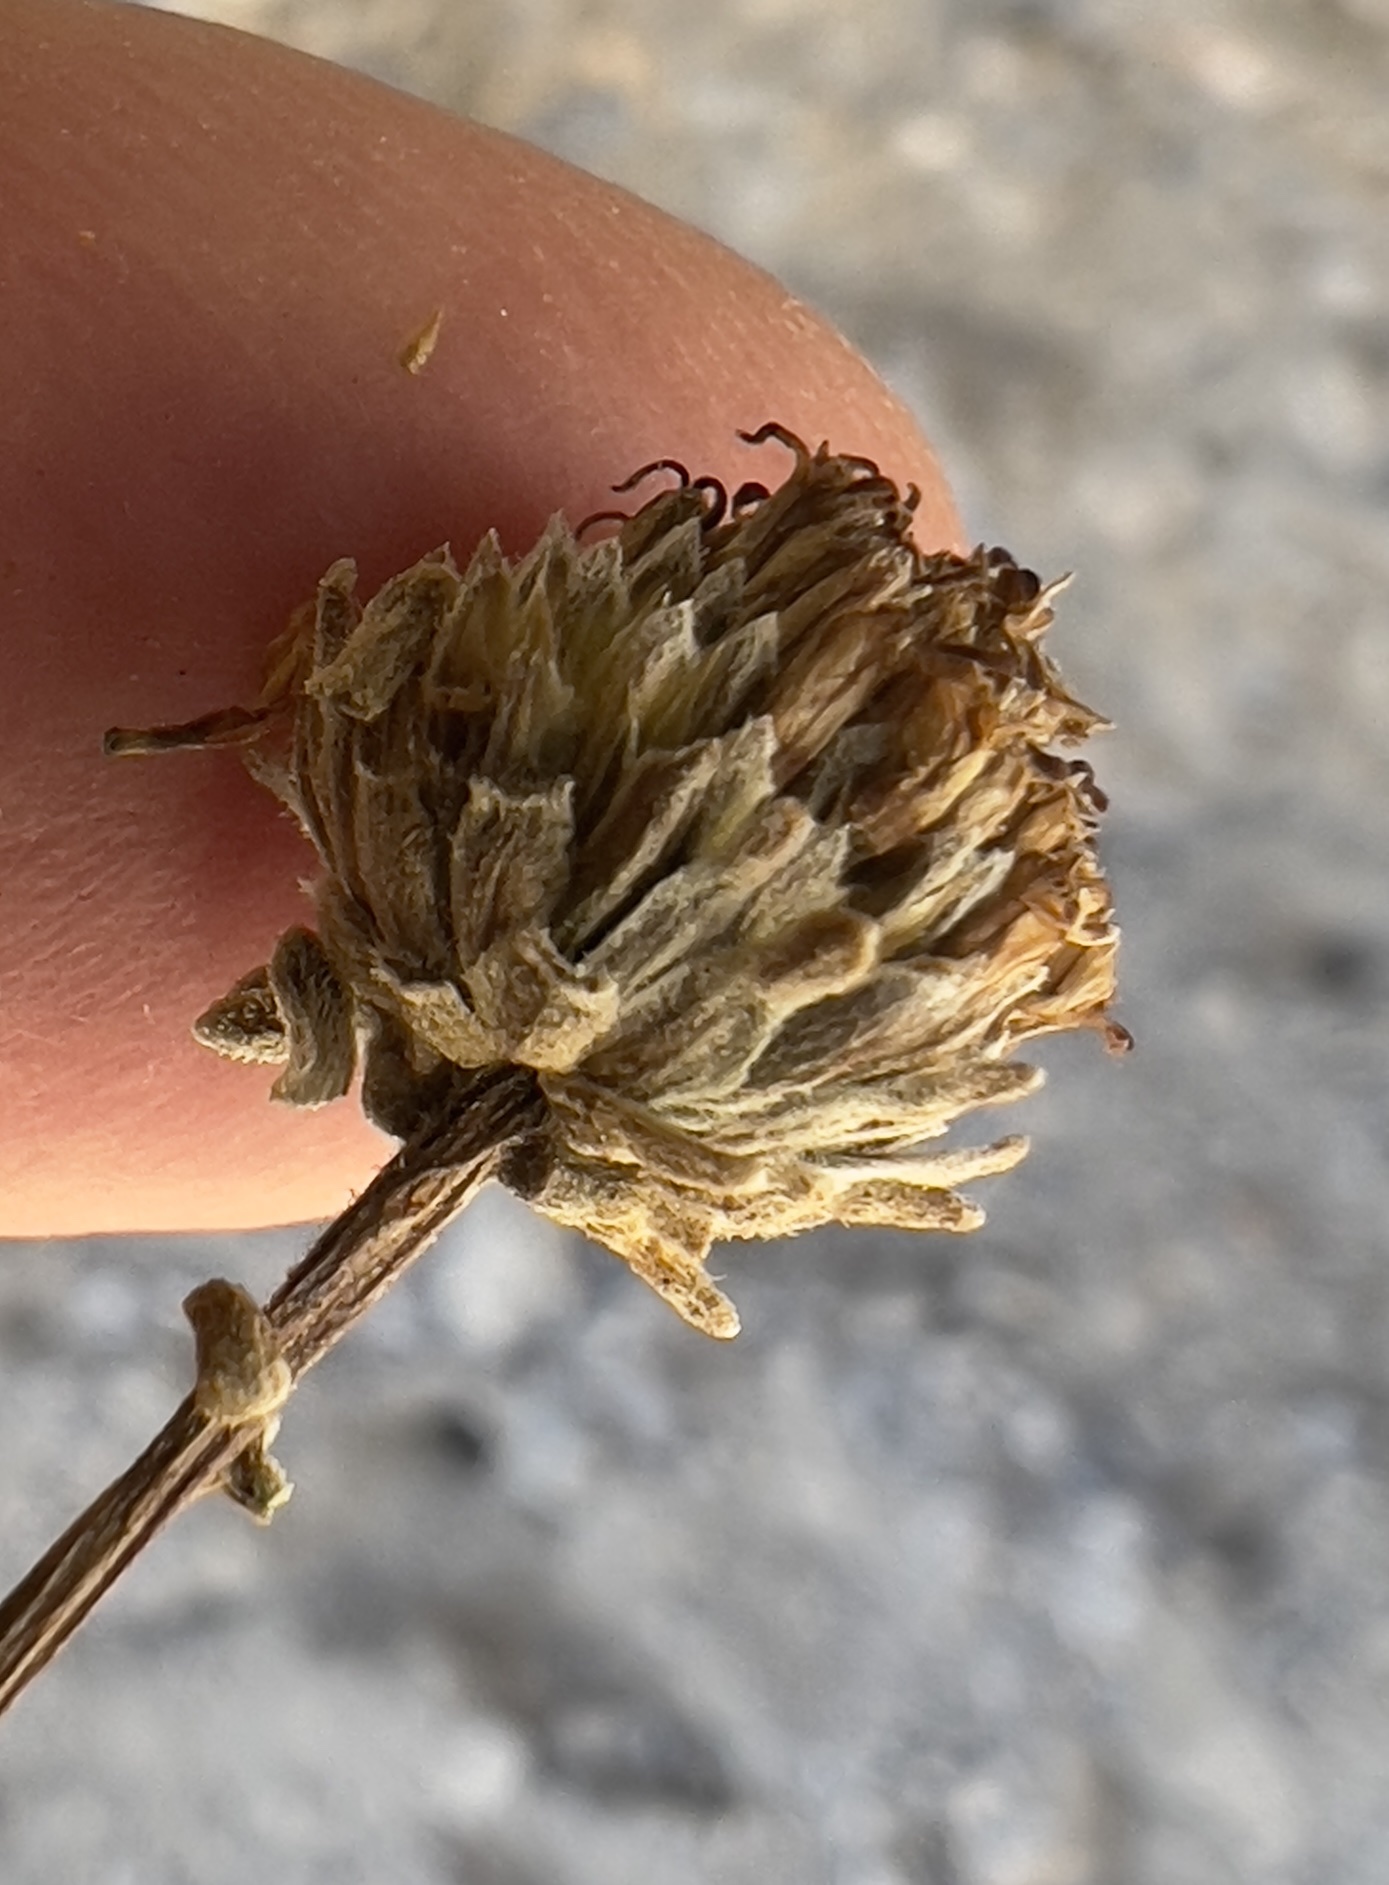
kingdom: Plantae
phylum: Tracheophyta
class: Magnoliopsida
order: Asterales
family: Asteraceae
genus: Bahiopsis
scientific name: Bahiopsis reticulata
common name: Death valley goldeneye
